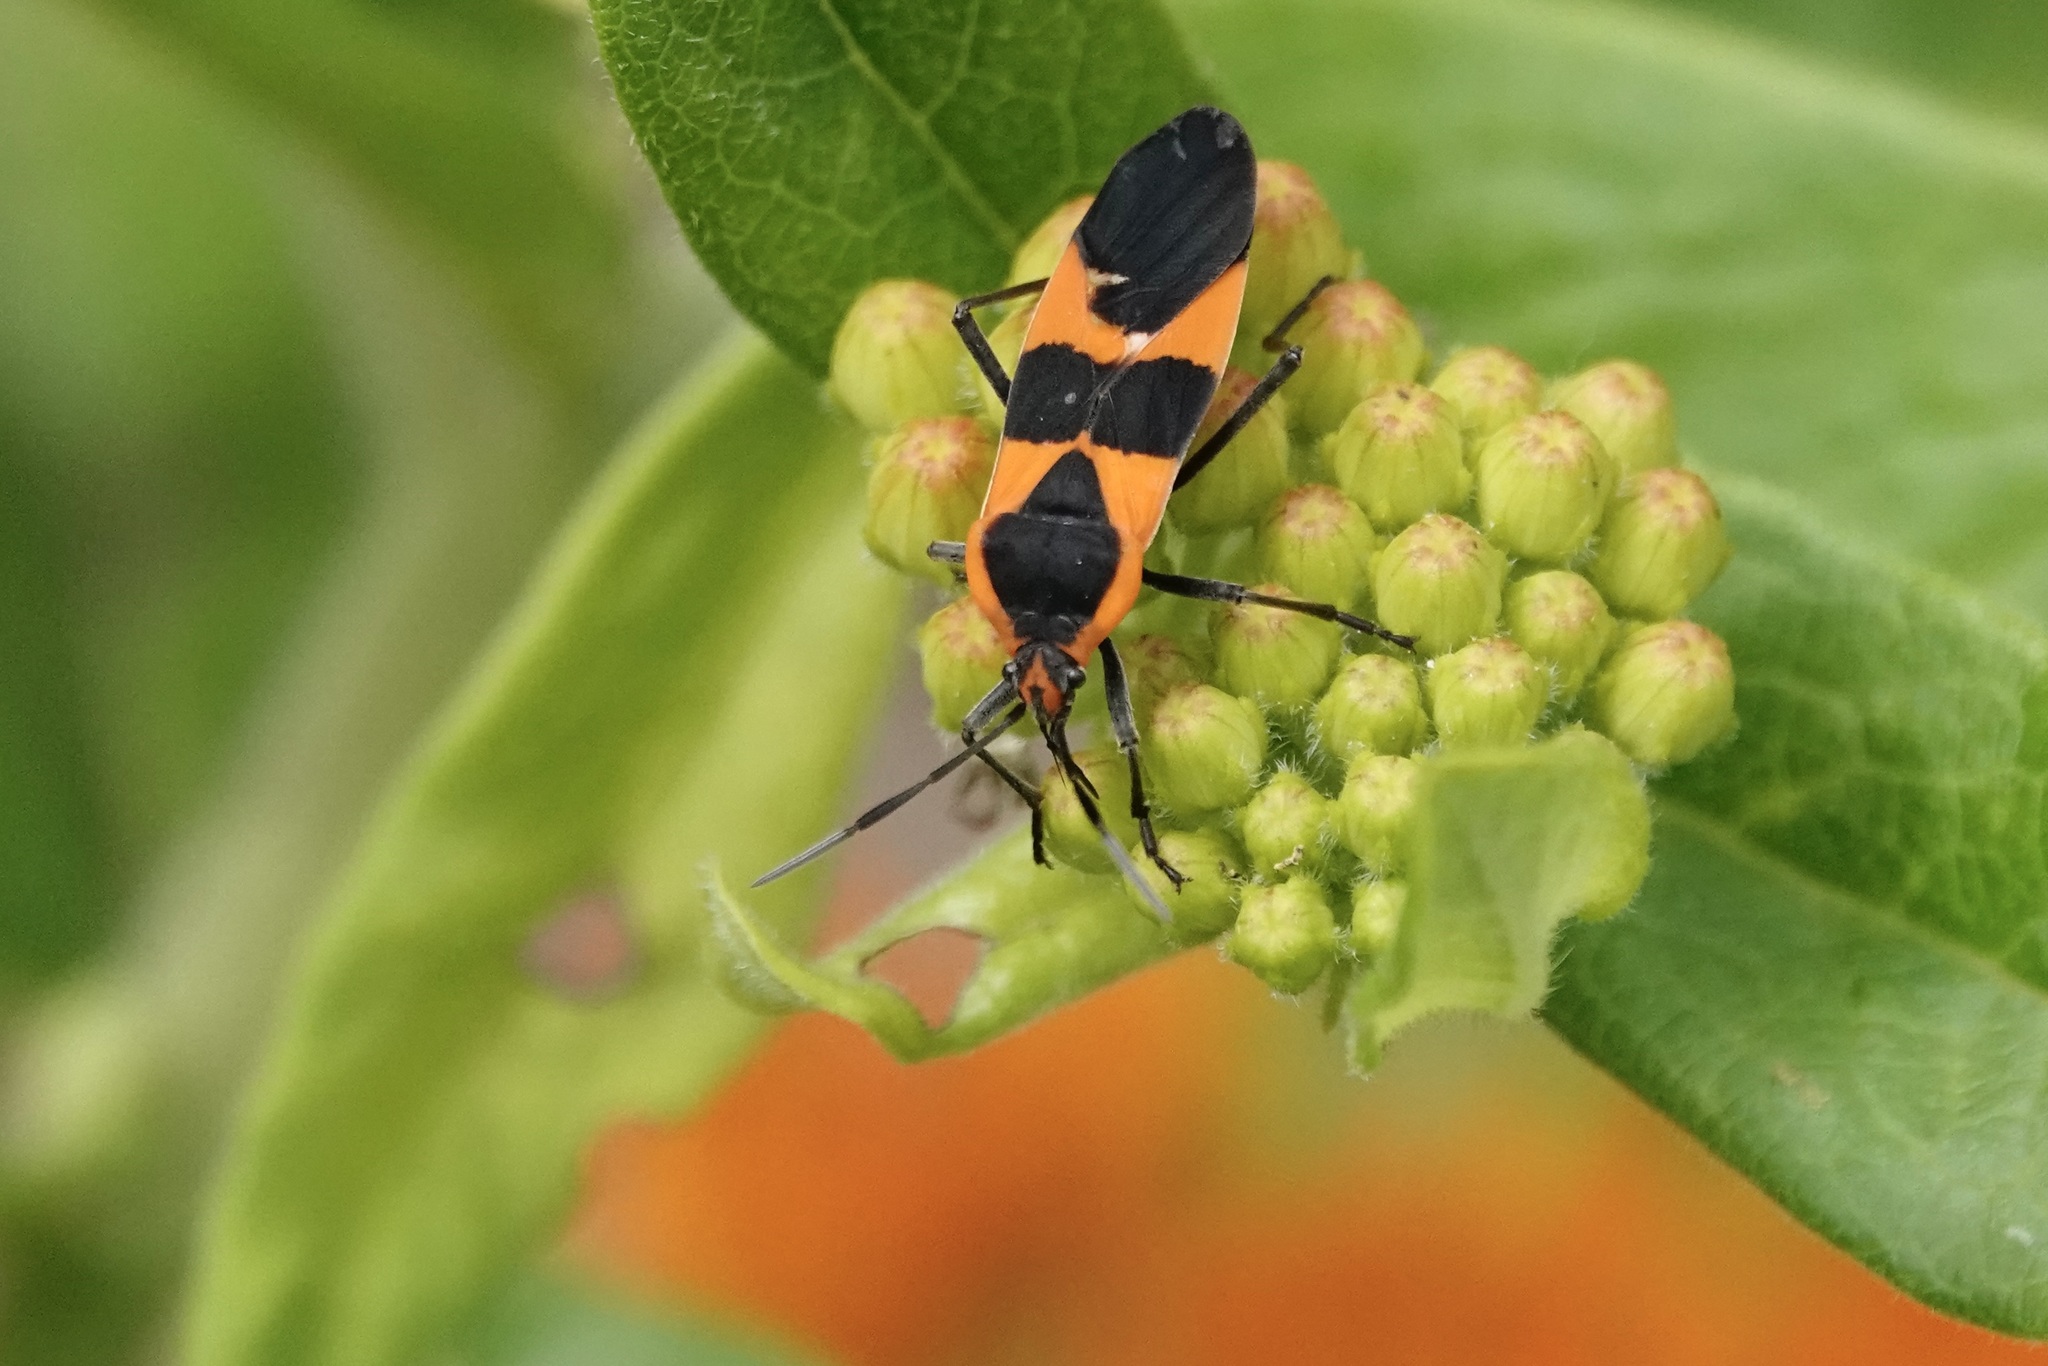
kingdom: Animalia
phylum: Arthropoda
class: Insecta
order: Hemiptera
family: Lygaeidae
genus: Oncopeltus
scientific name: Oncopeltus fasciatus
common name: Large milkweed bug
